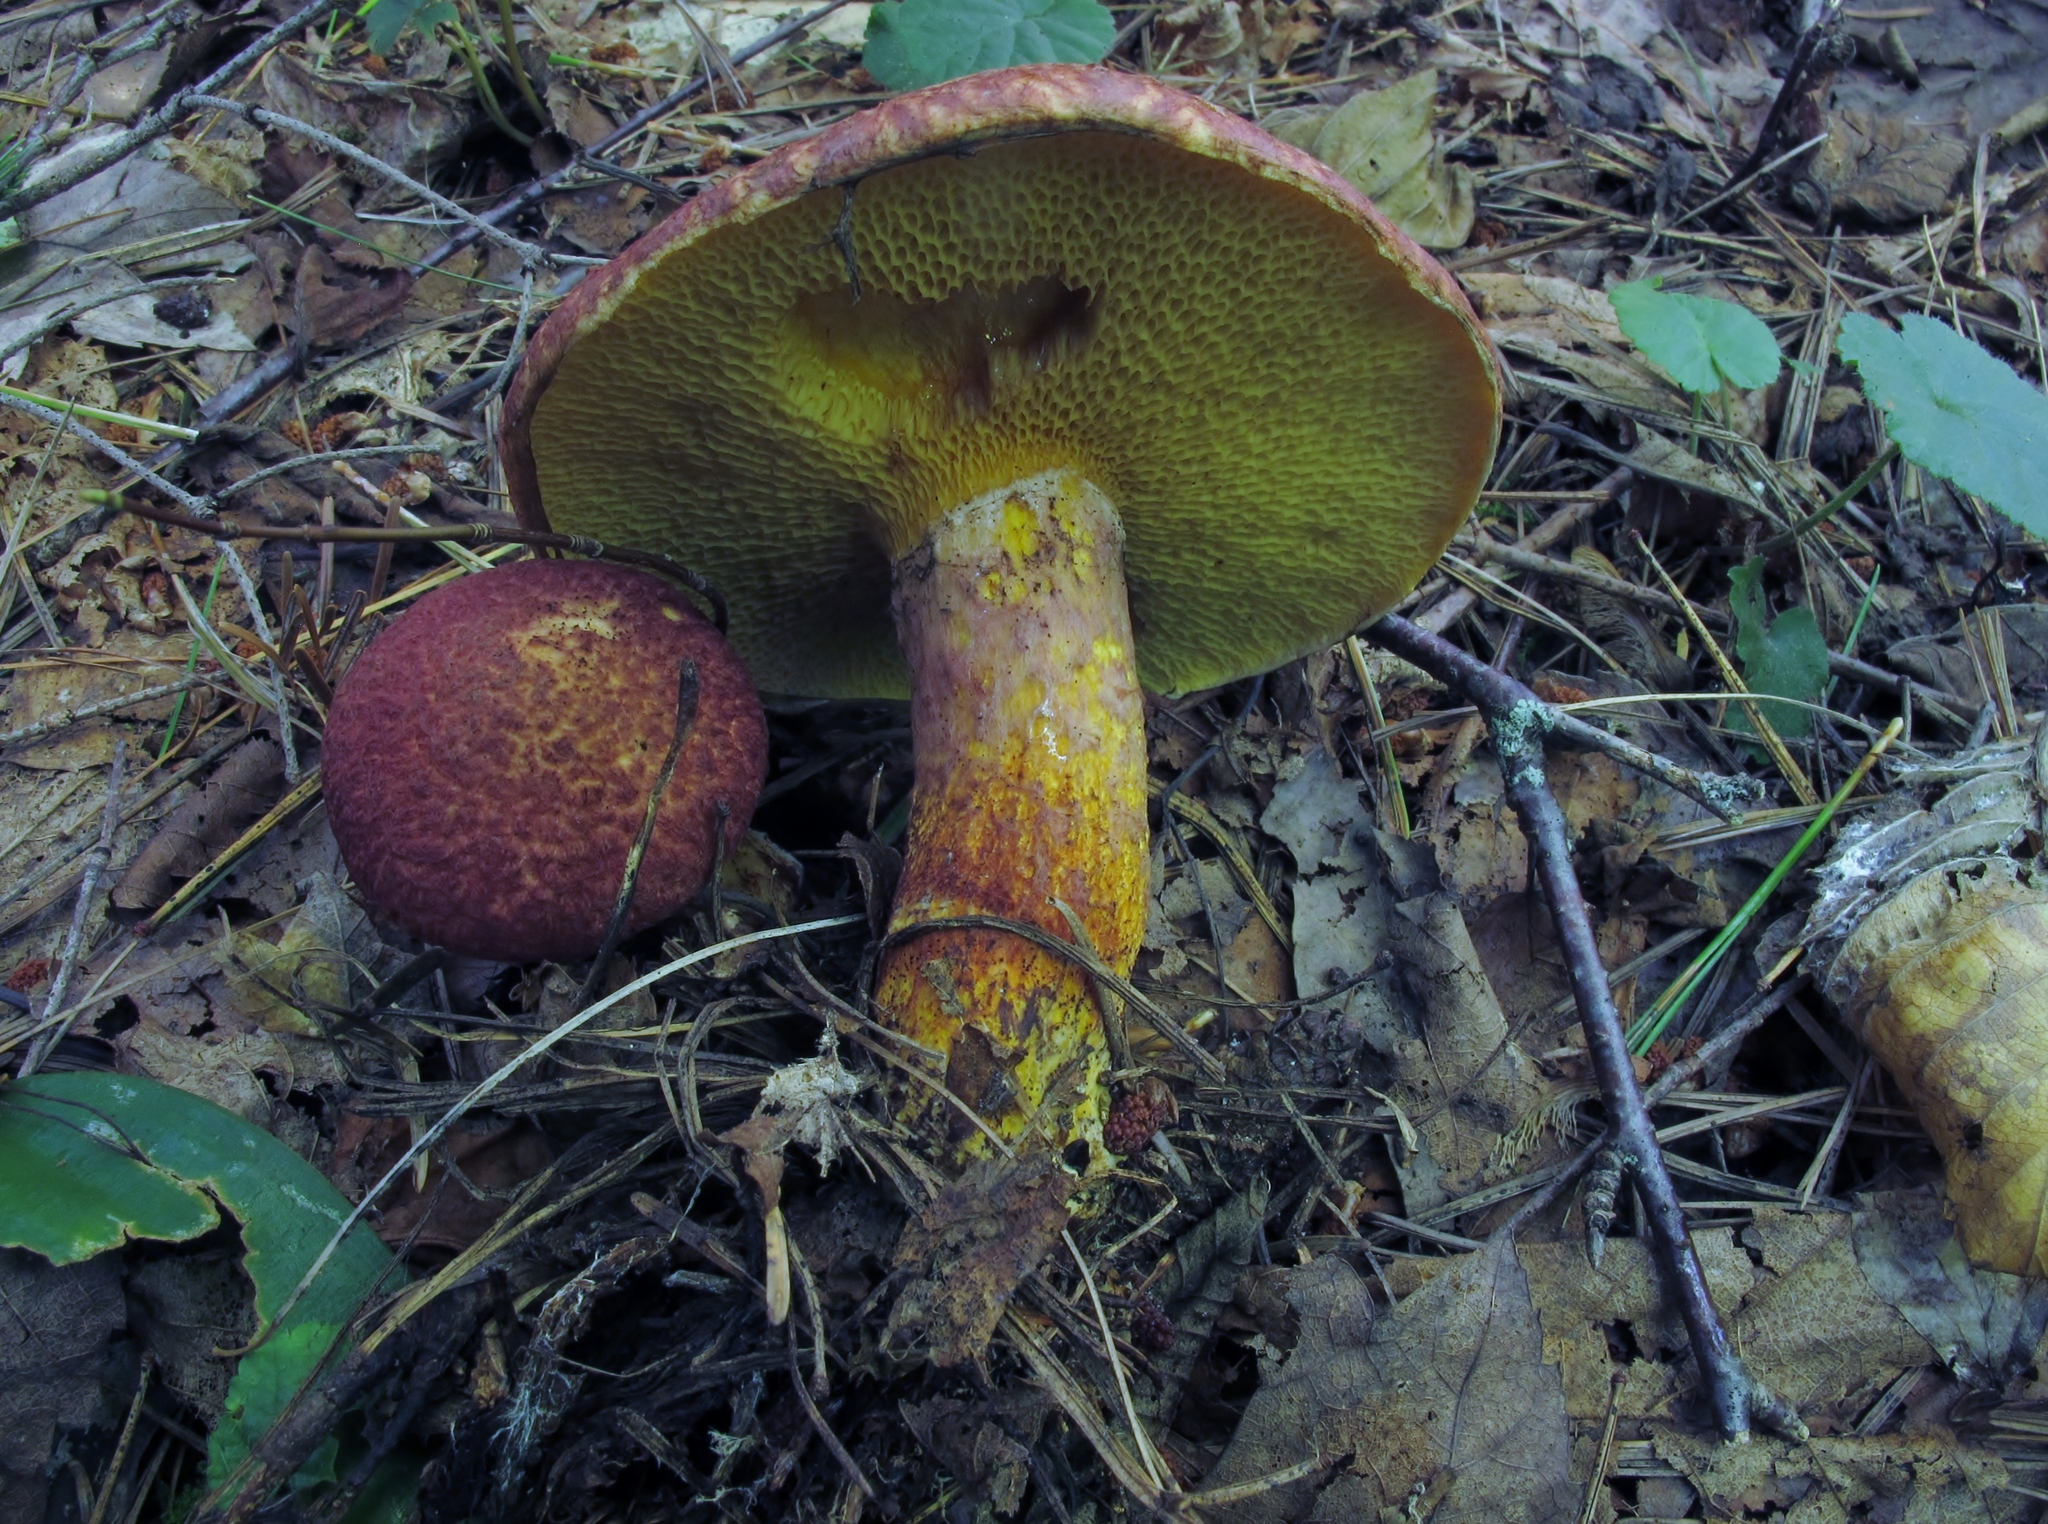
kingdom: Fungi
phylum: Basidiomycota
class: Agaricomycetes
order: Boletales
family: Suillaceae
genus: Suillus
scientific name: Suillus spraguei
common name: Painted suillus
